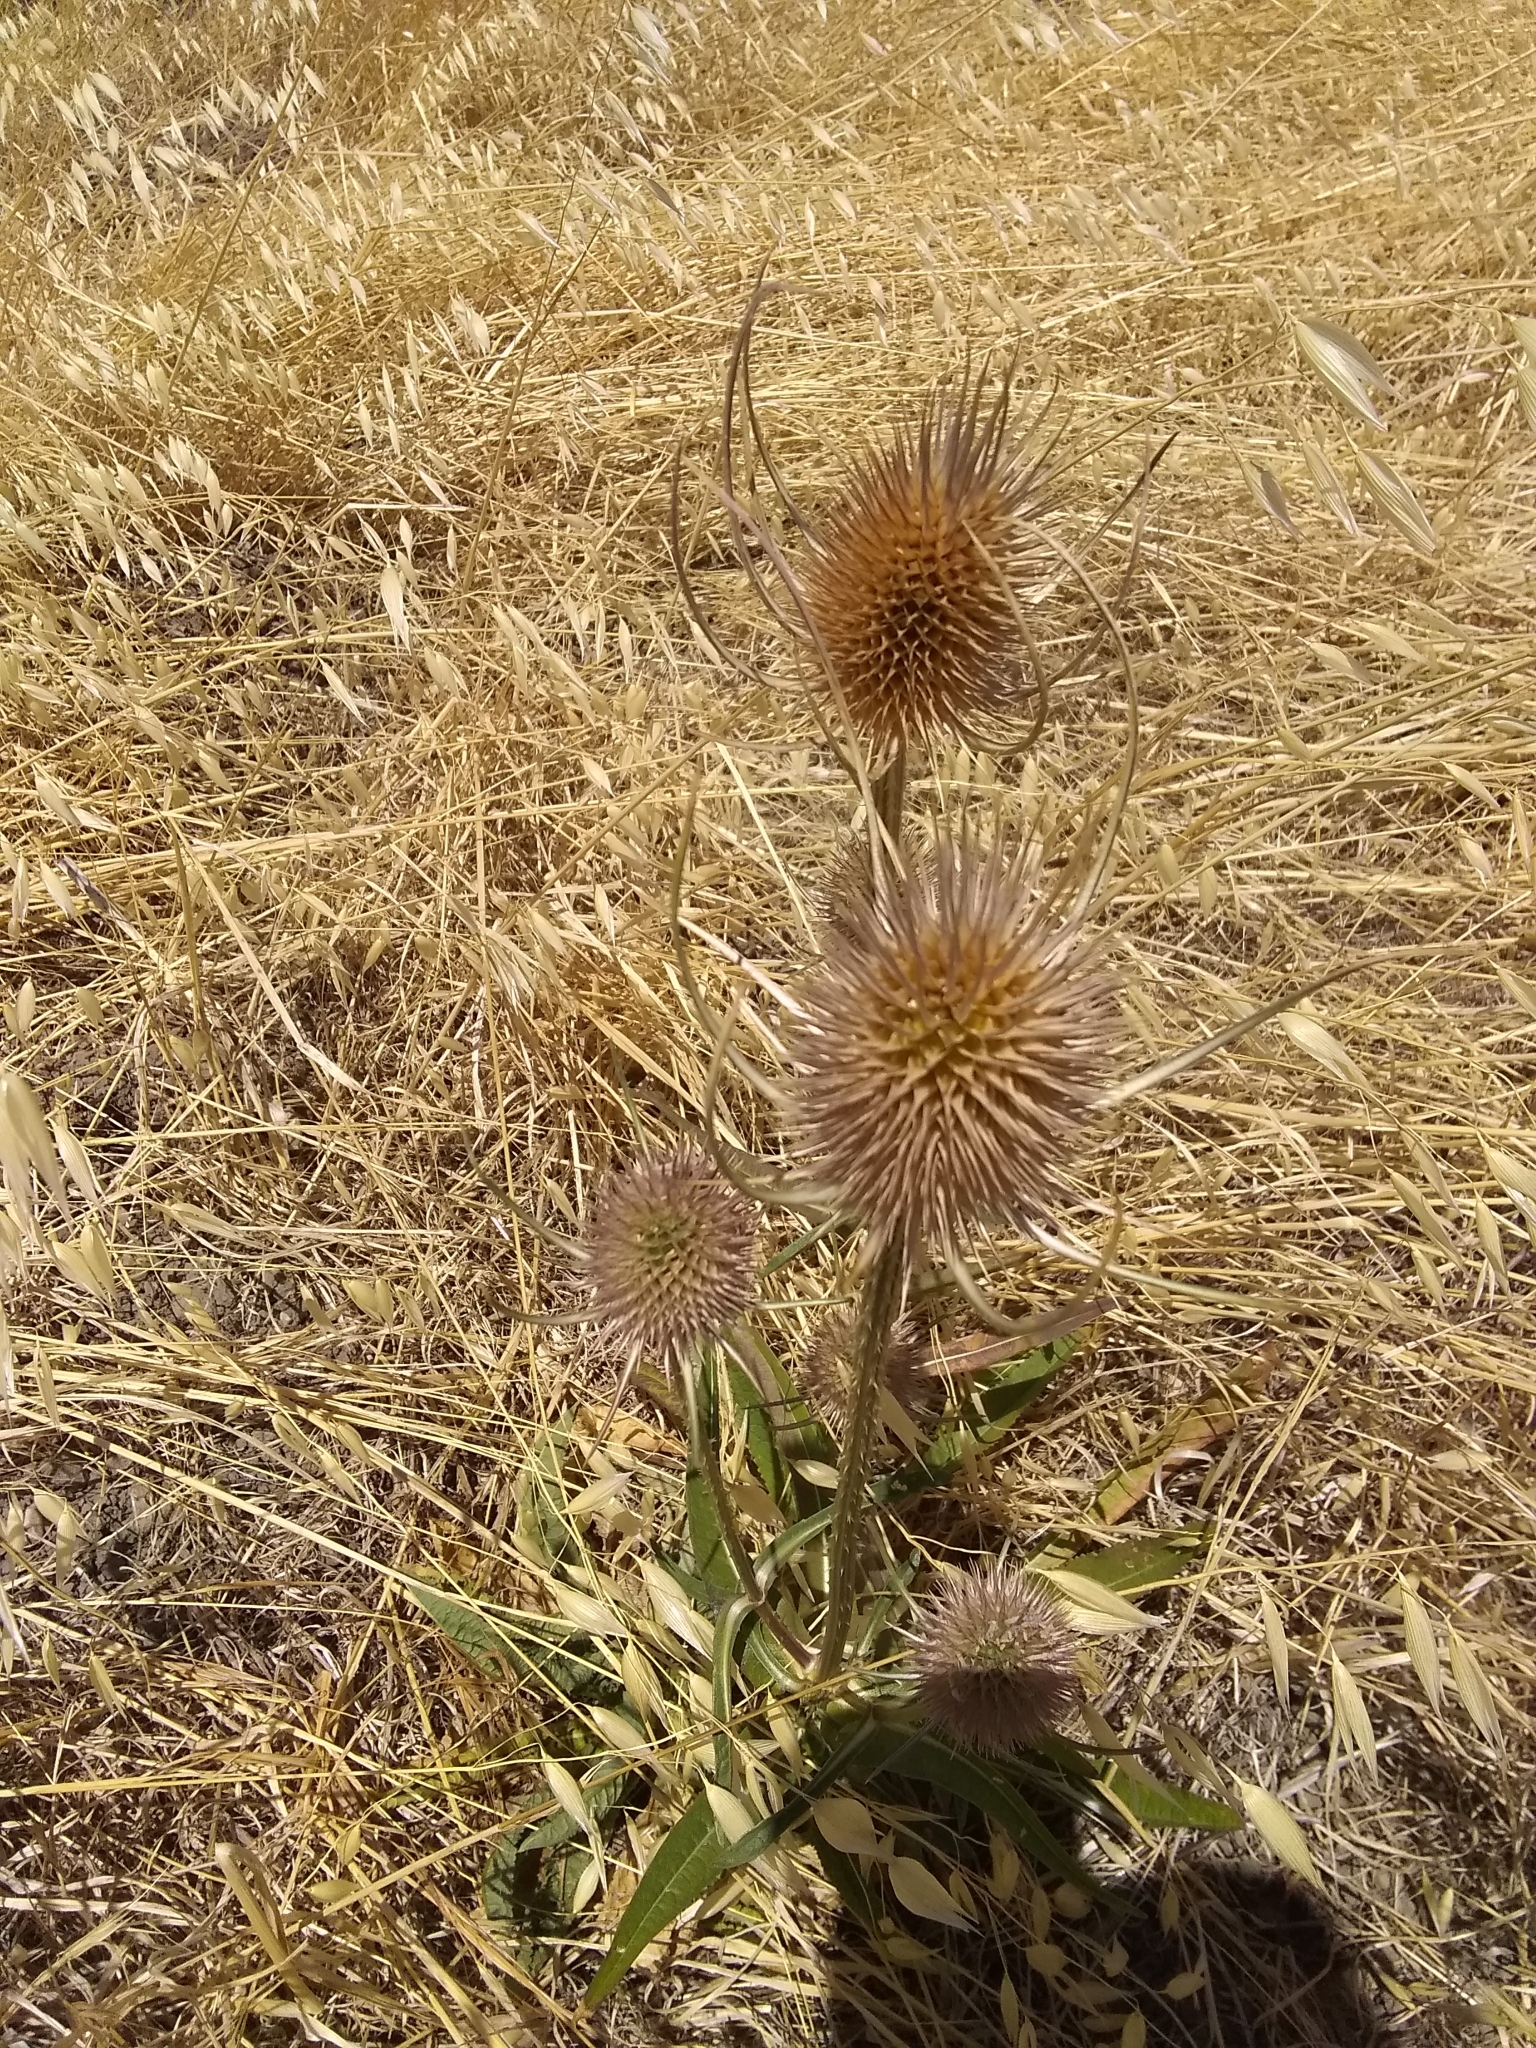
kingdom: Plantae
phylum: Tracheophyta
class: Magnoliopsida
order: Dipsacales
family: Caprifoliaceae
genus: Dipsacus
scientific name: Dipsacus fullonum
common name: Teasel
